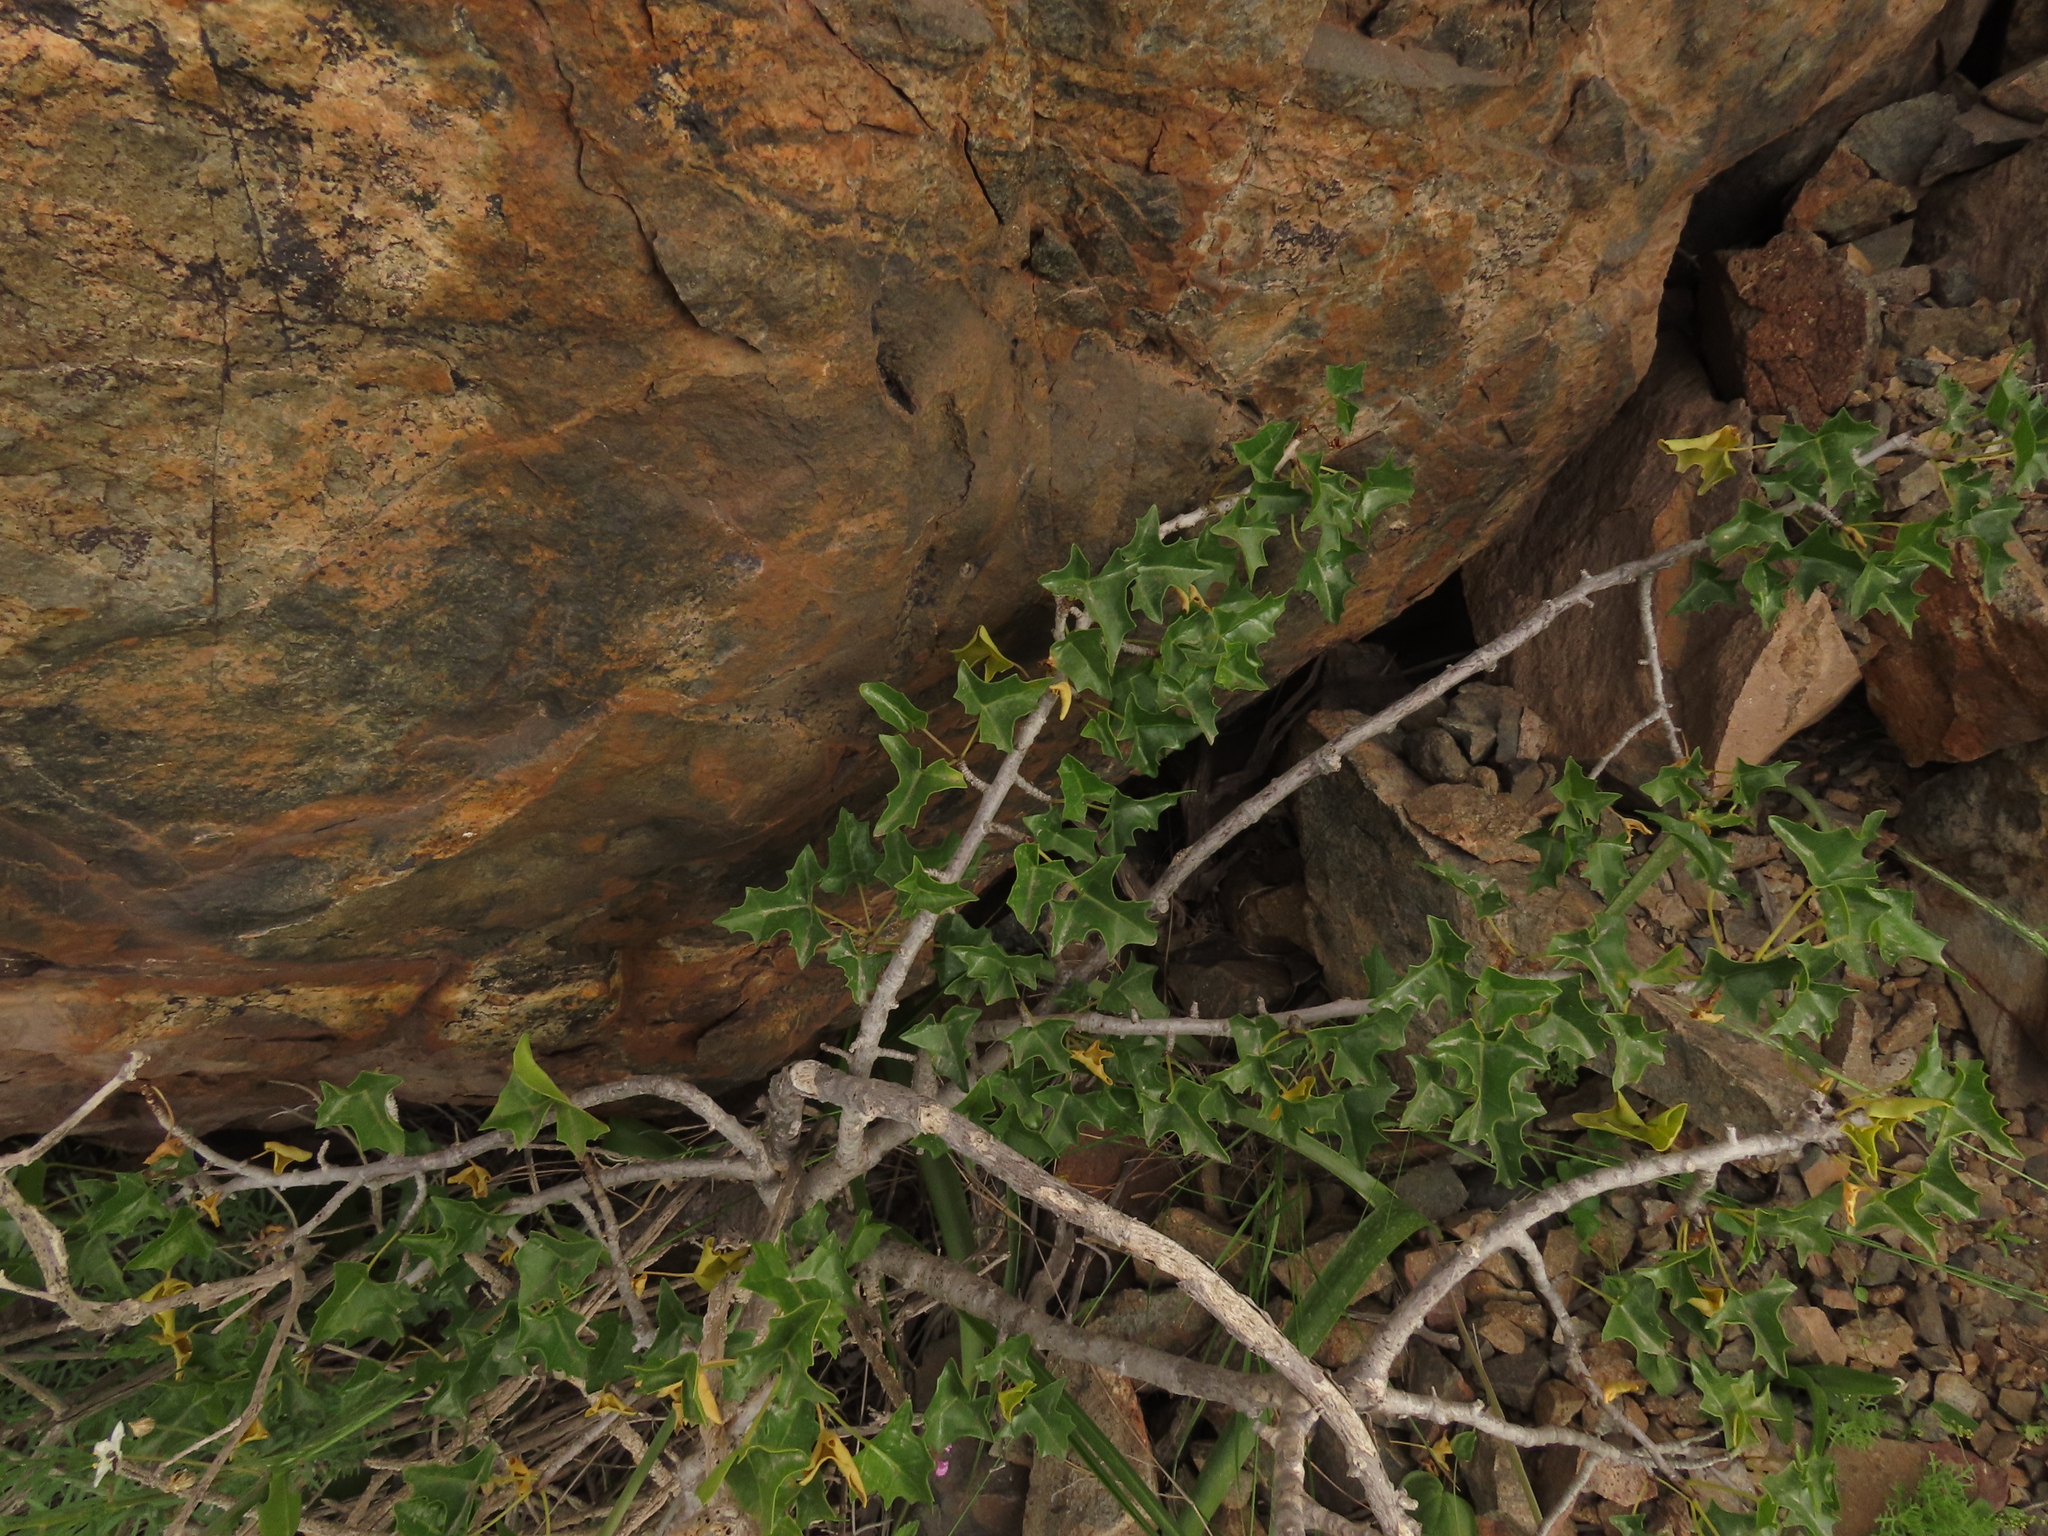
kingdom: Plantae
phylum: Tracheophyta
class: Magnoliopsida
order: Brassicales
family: Caricaceae
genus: Vasconcellea
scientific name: Vasconcellea chilensis
